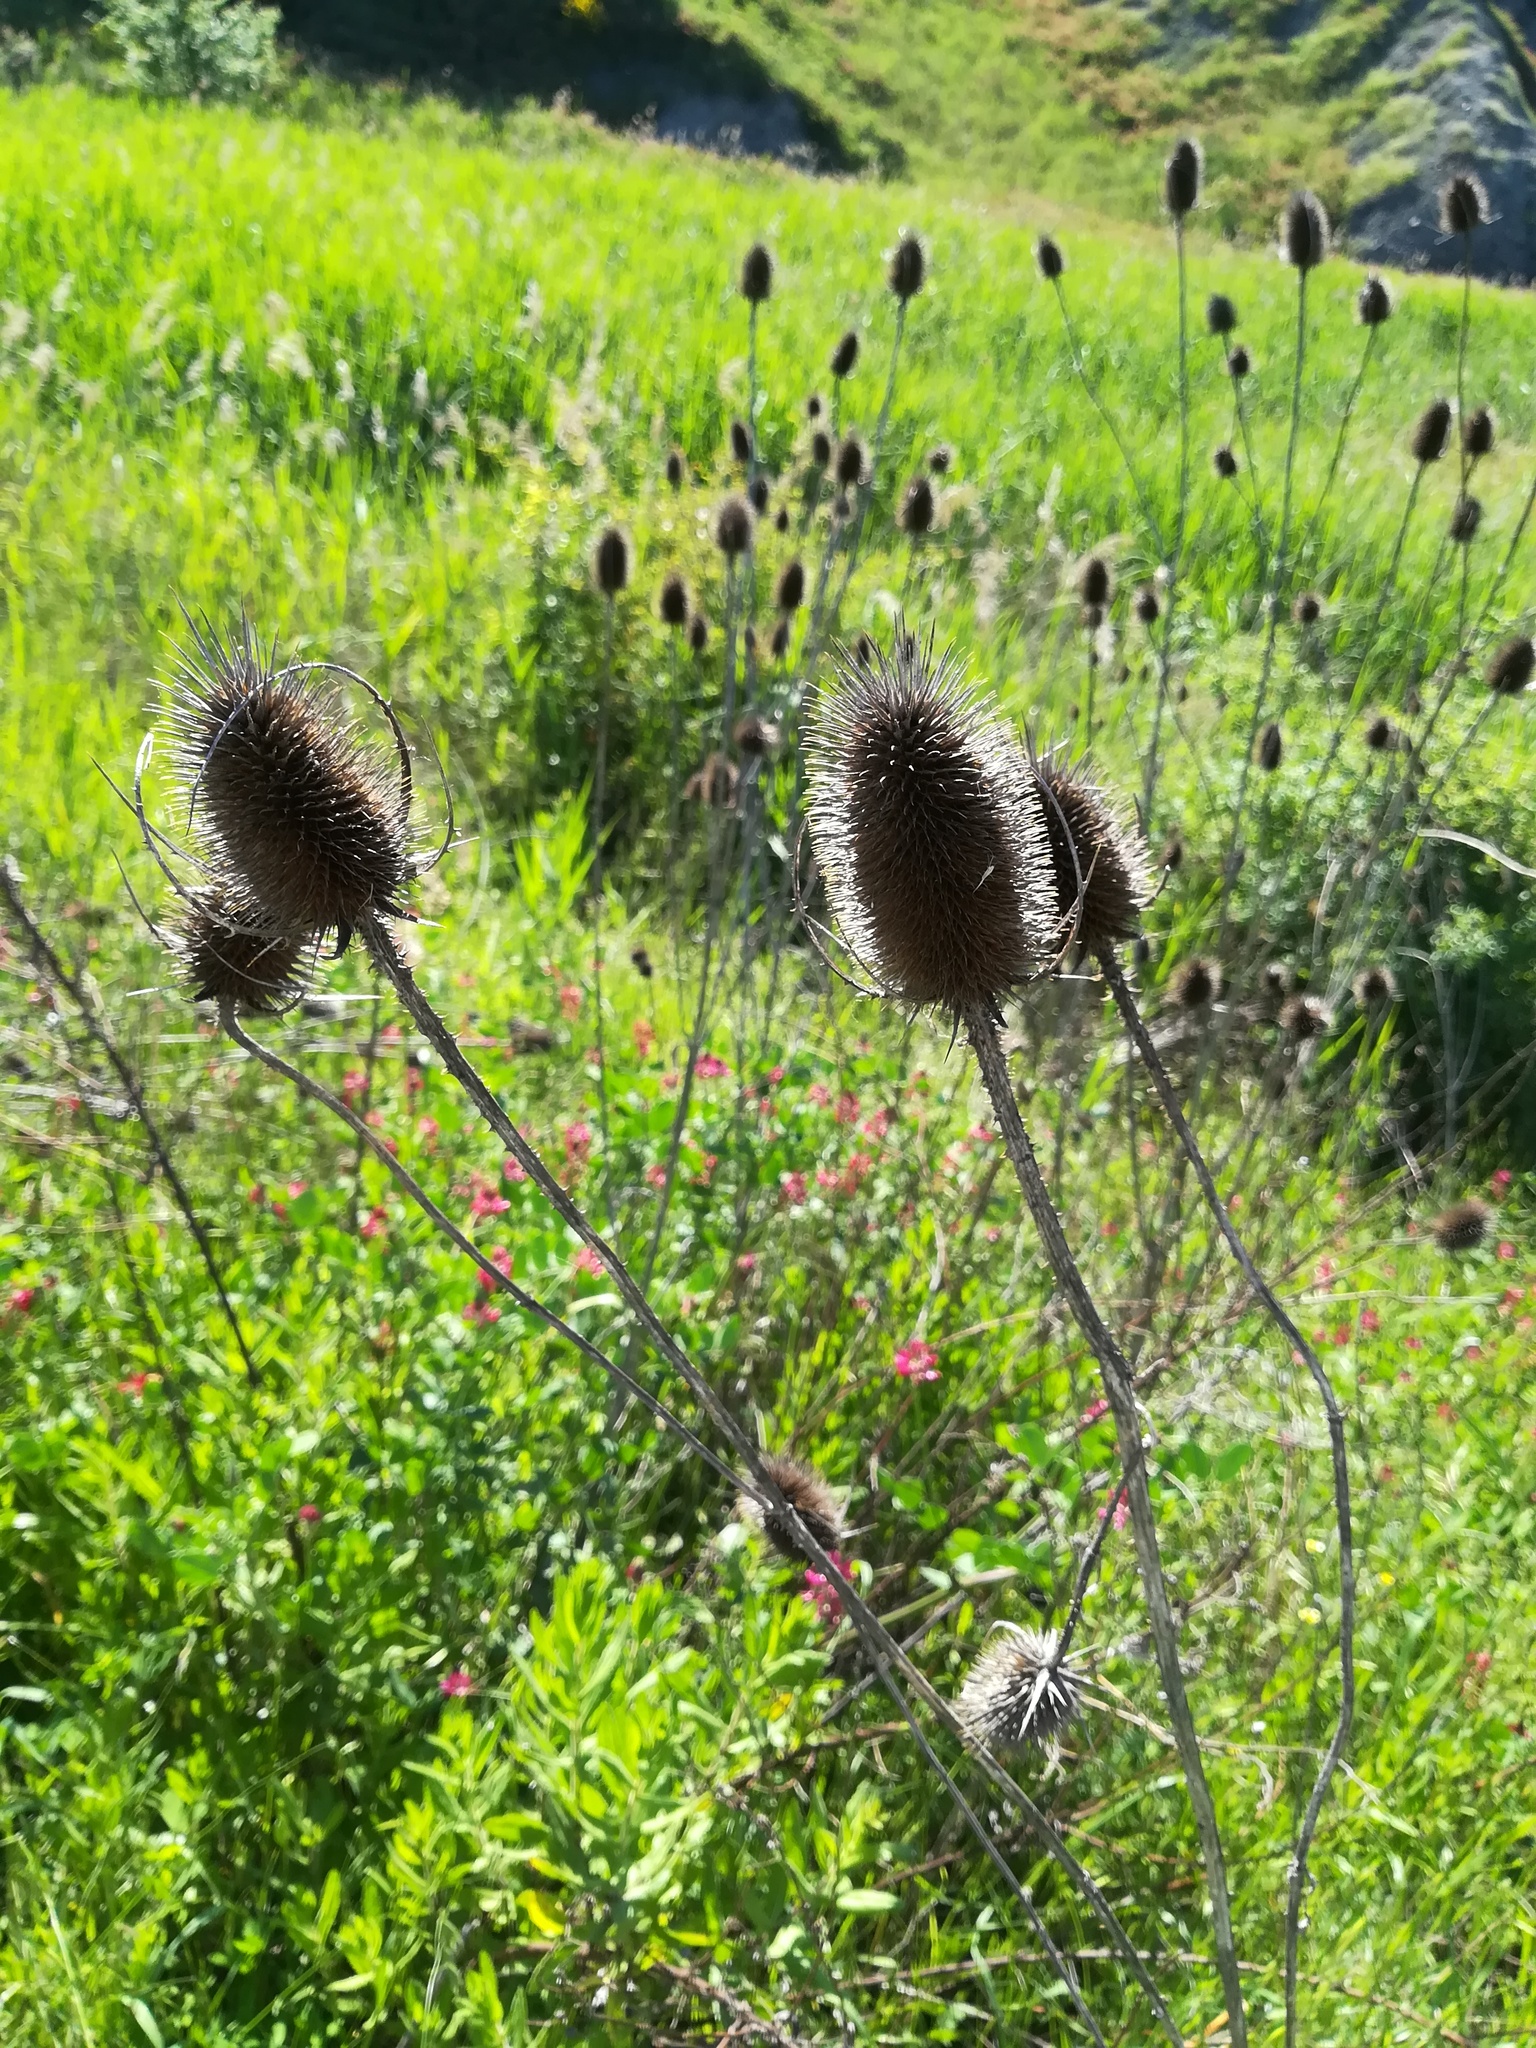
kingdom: Plantae
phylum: Tracheophyta
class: Magnoliopsida
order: Dipsacales
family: Caprifoliaceae
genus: Dipsacus
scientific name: Dipsacus fullonum
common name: Teasel
